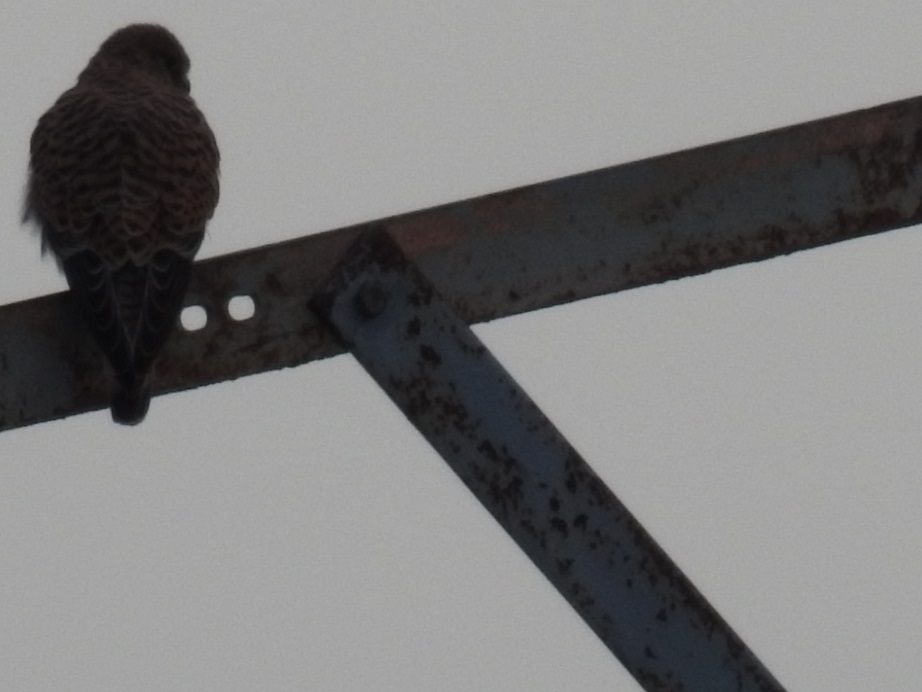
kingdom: Animalia
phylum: Chordata
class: Aves
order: Falconiformes
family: Falconidae
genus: Falco
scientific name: Falco tinnunculus
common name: Common kestrel
